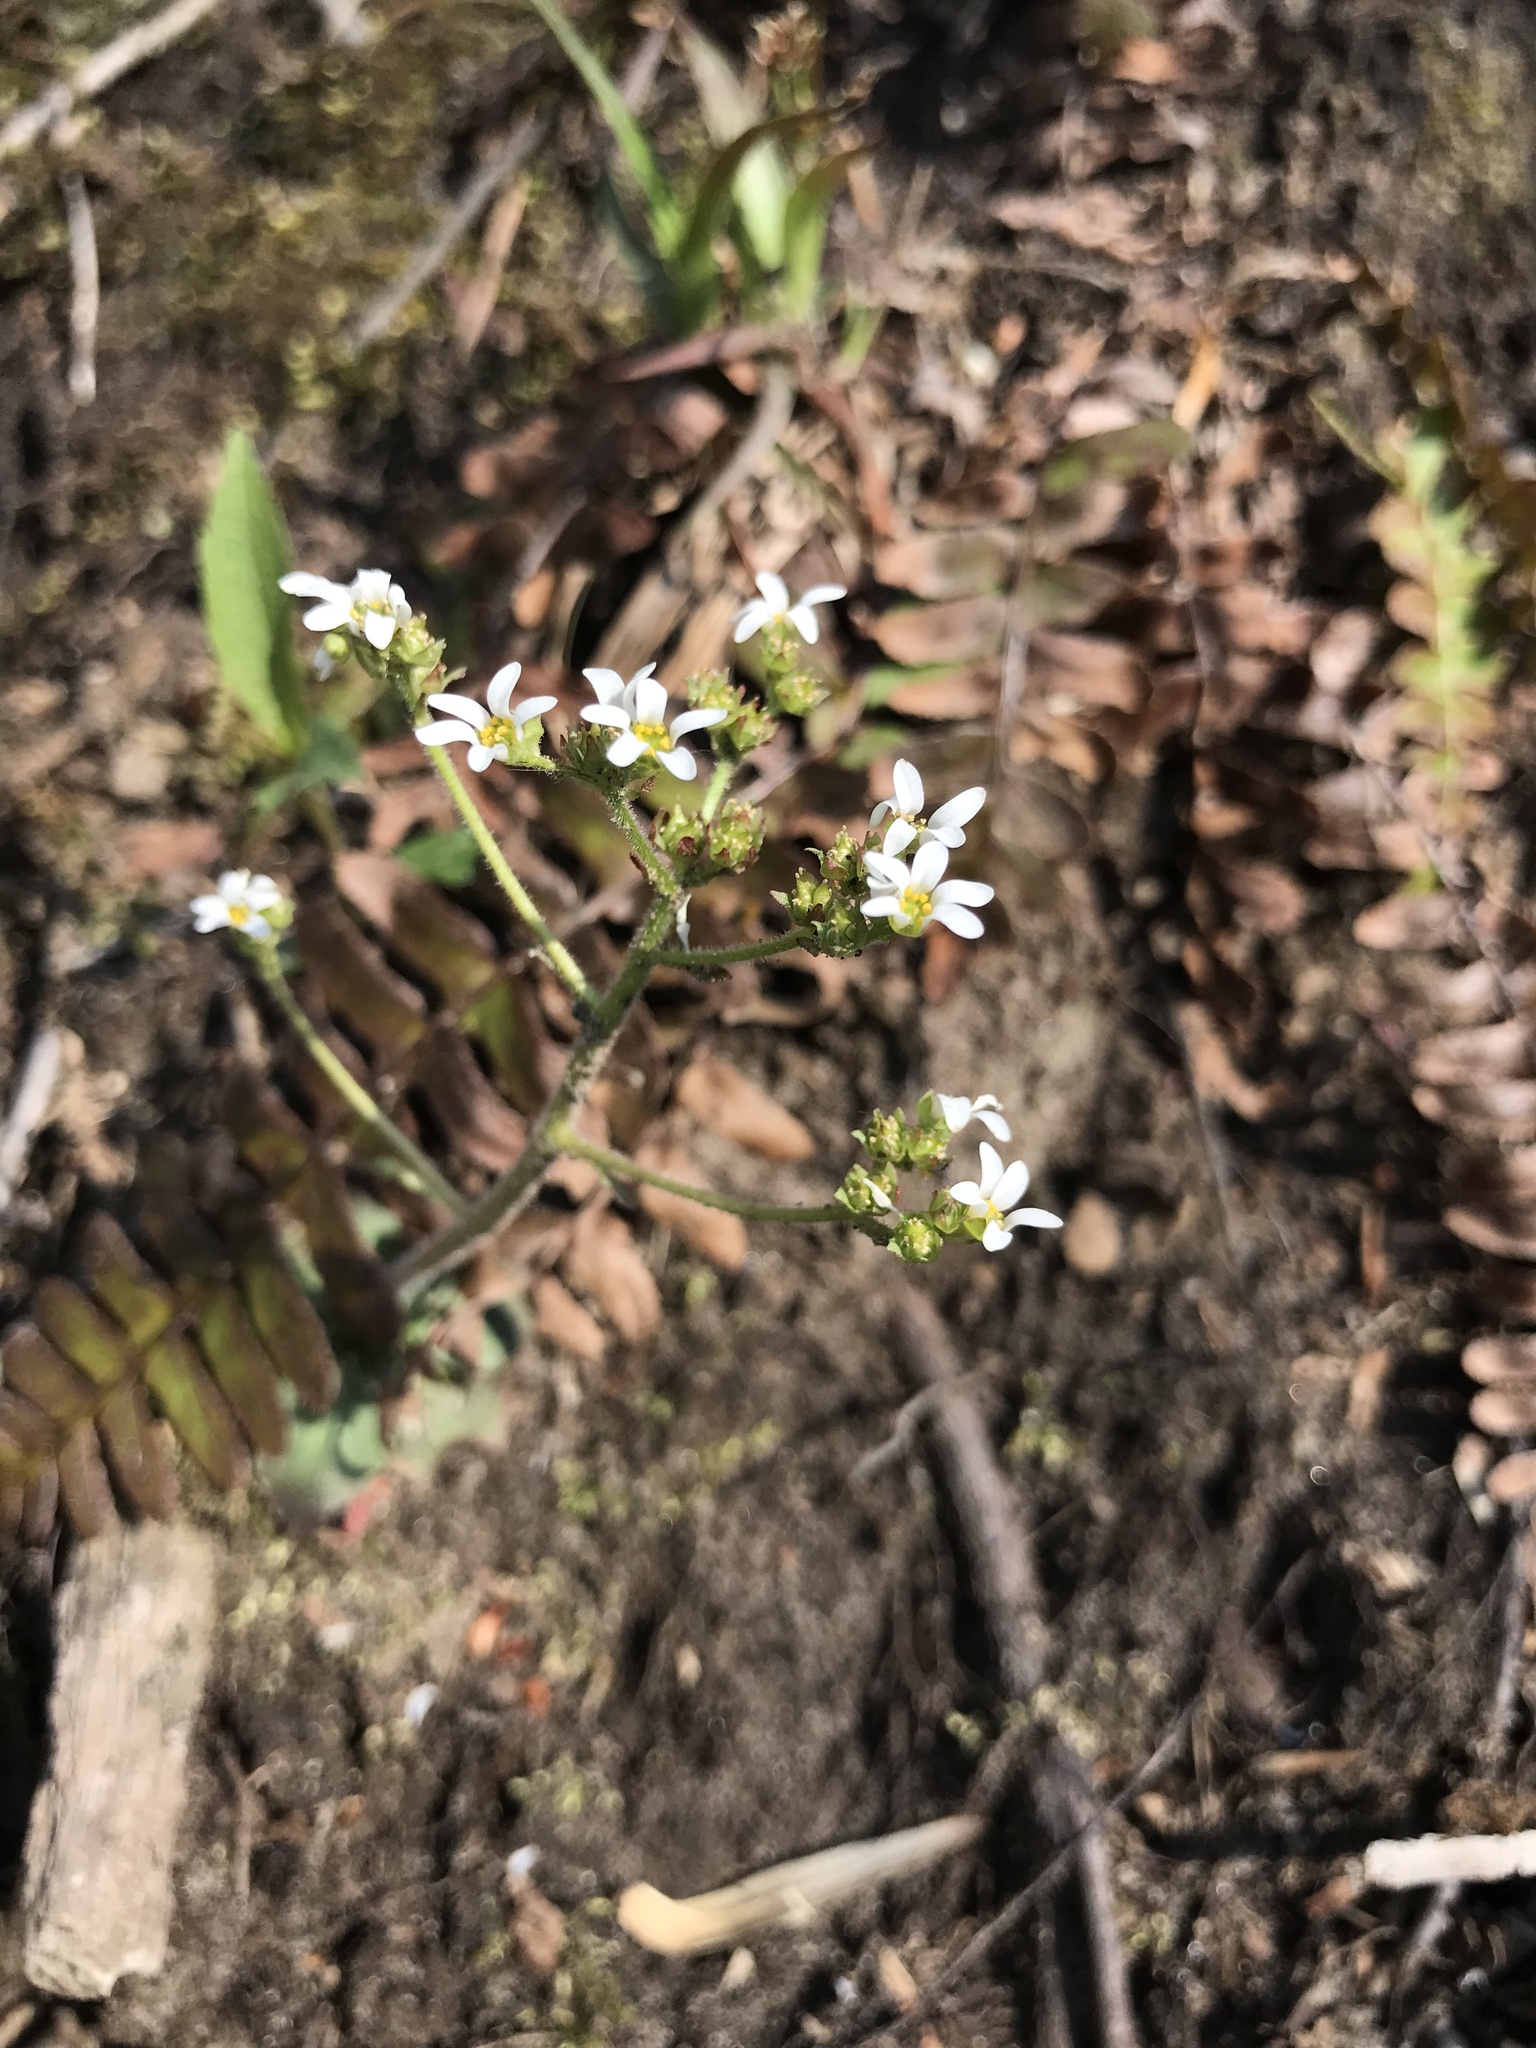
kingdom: Plantae
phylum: Tracheophyta
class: Magnoliopsida
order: Saxifragales
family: Saxifragaceae
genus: Micranthes
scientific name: Micranthes virginiensis
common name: Early saxifrage
